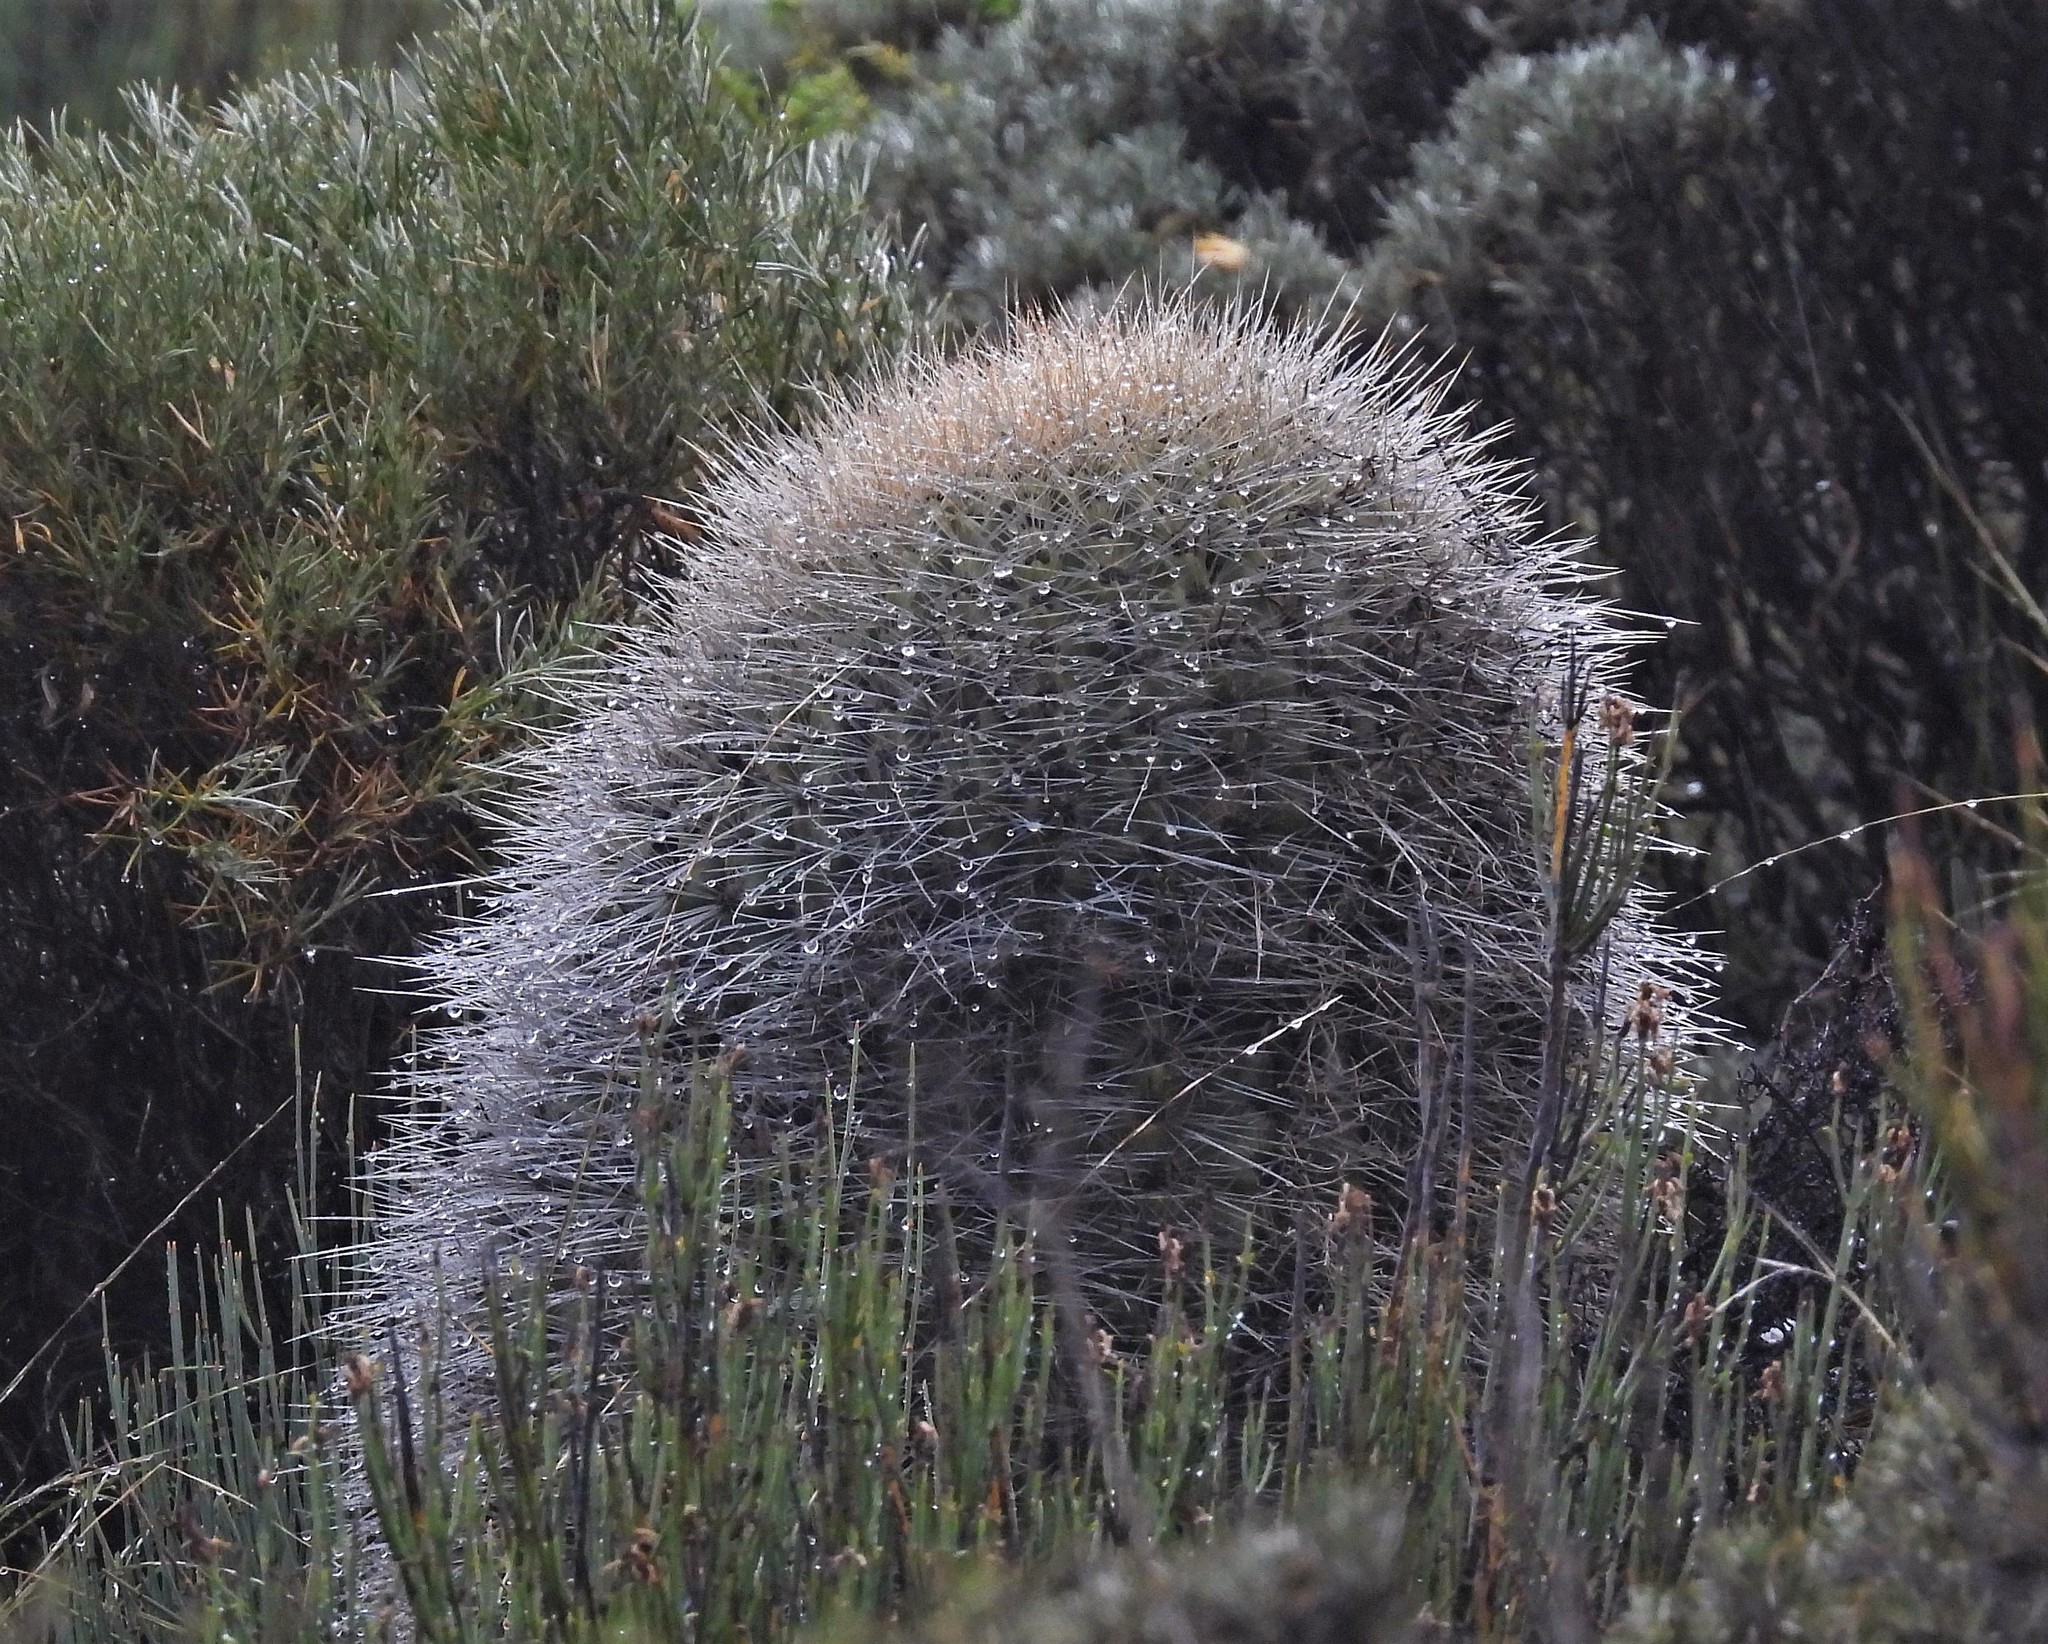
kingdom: Plantae
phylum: Tracheophyta
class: Magnoliopsida
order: Caryophyllales
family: Cactaceae
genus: Soehrensia
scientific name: Soehrensia formosa
